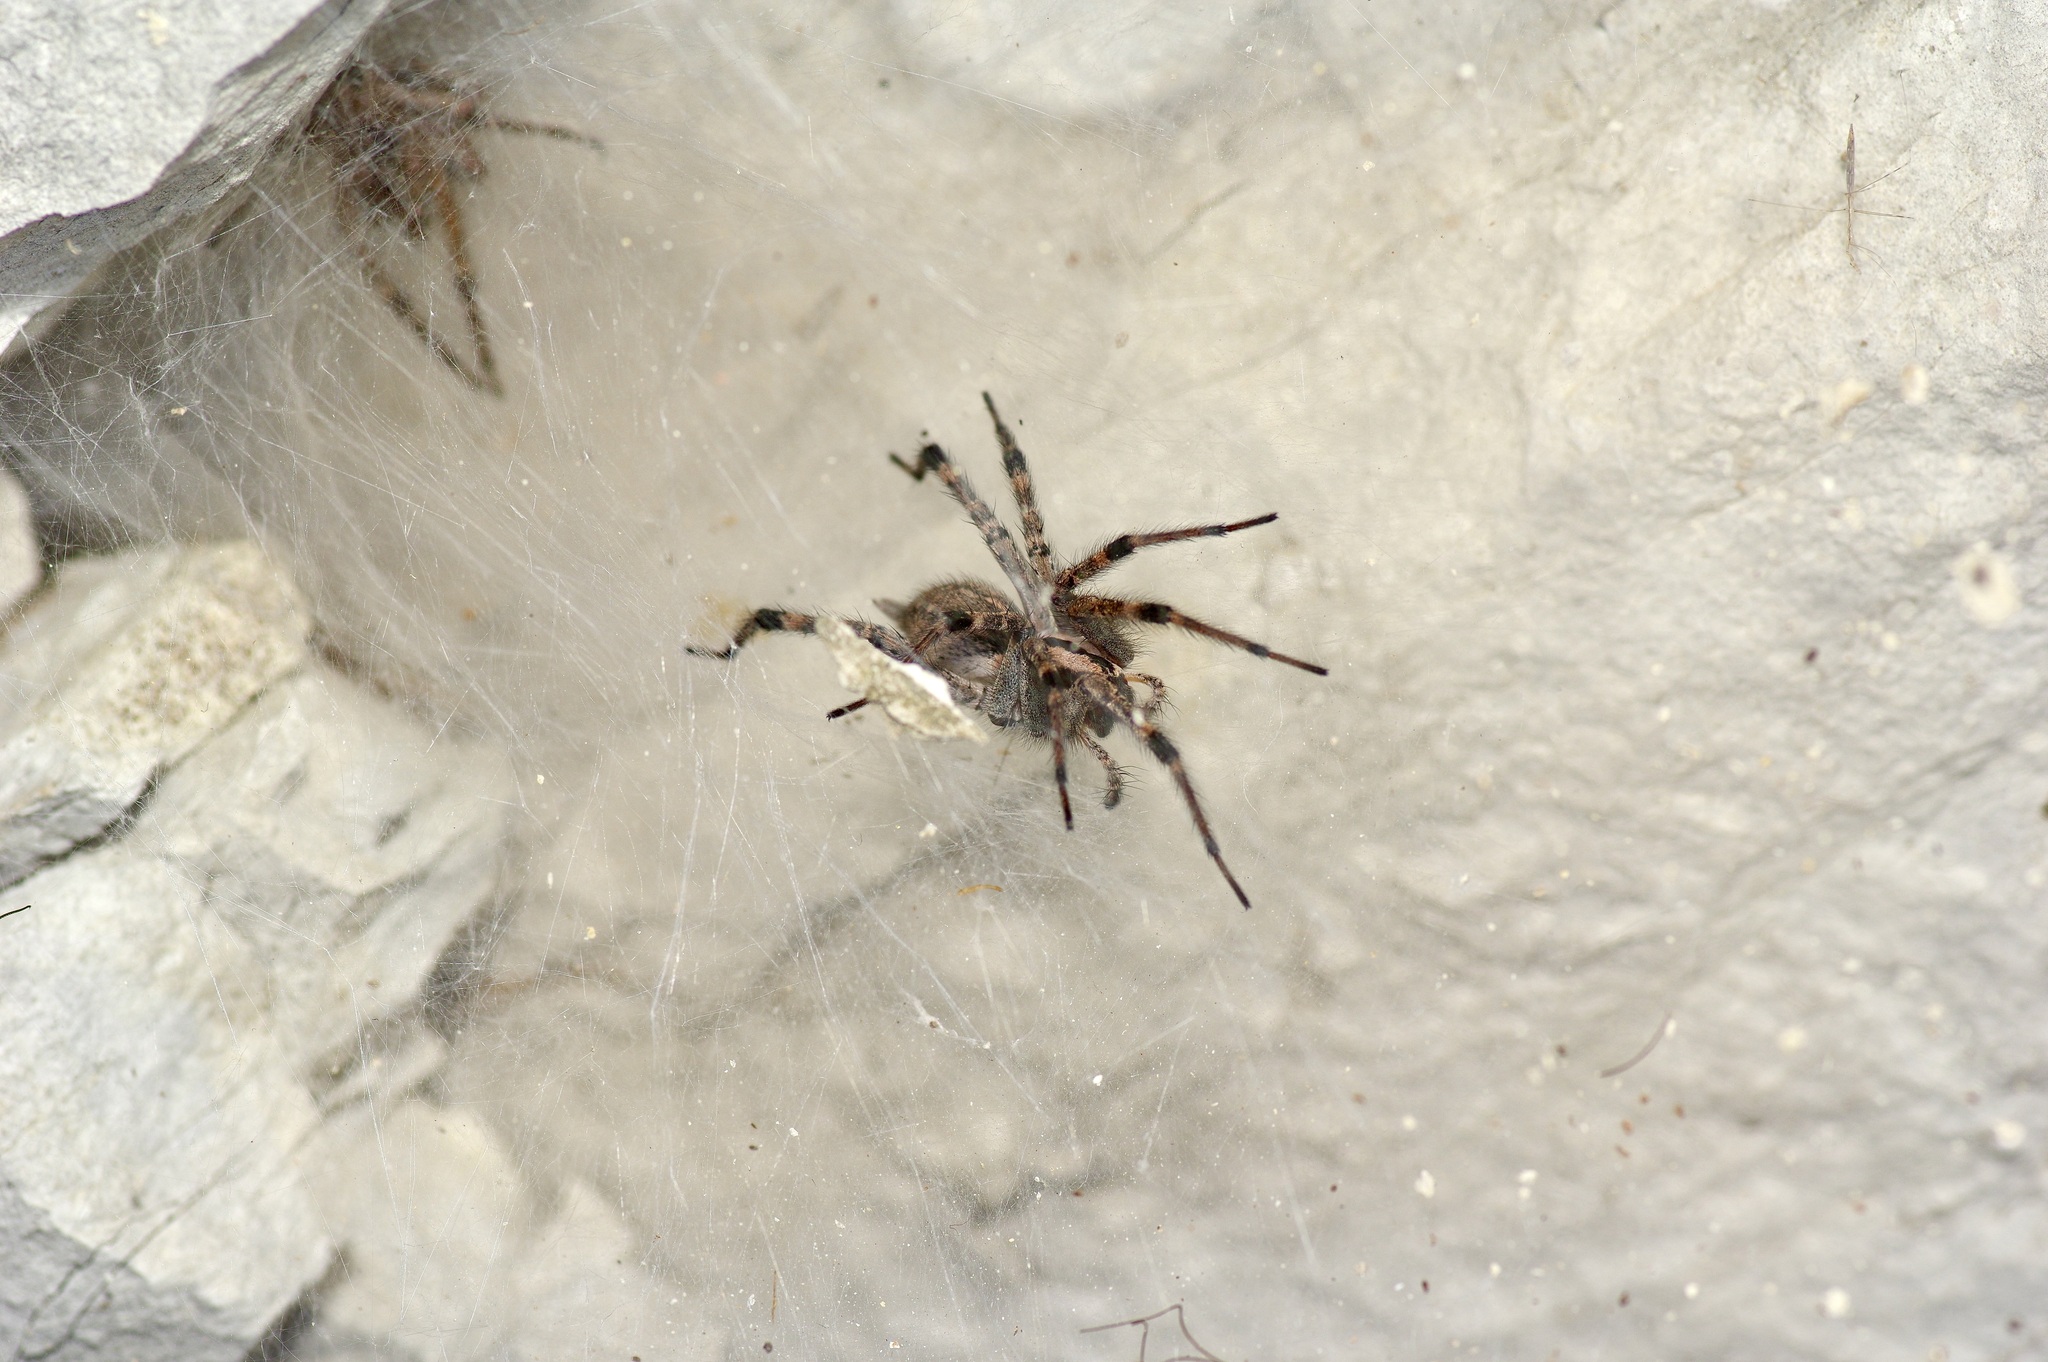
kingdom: Animalia
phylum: Arthropoda
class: Arachnida
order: Araneae
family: Agelenidae
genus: Agelenopsis
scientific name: Agelenopsis
